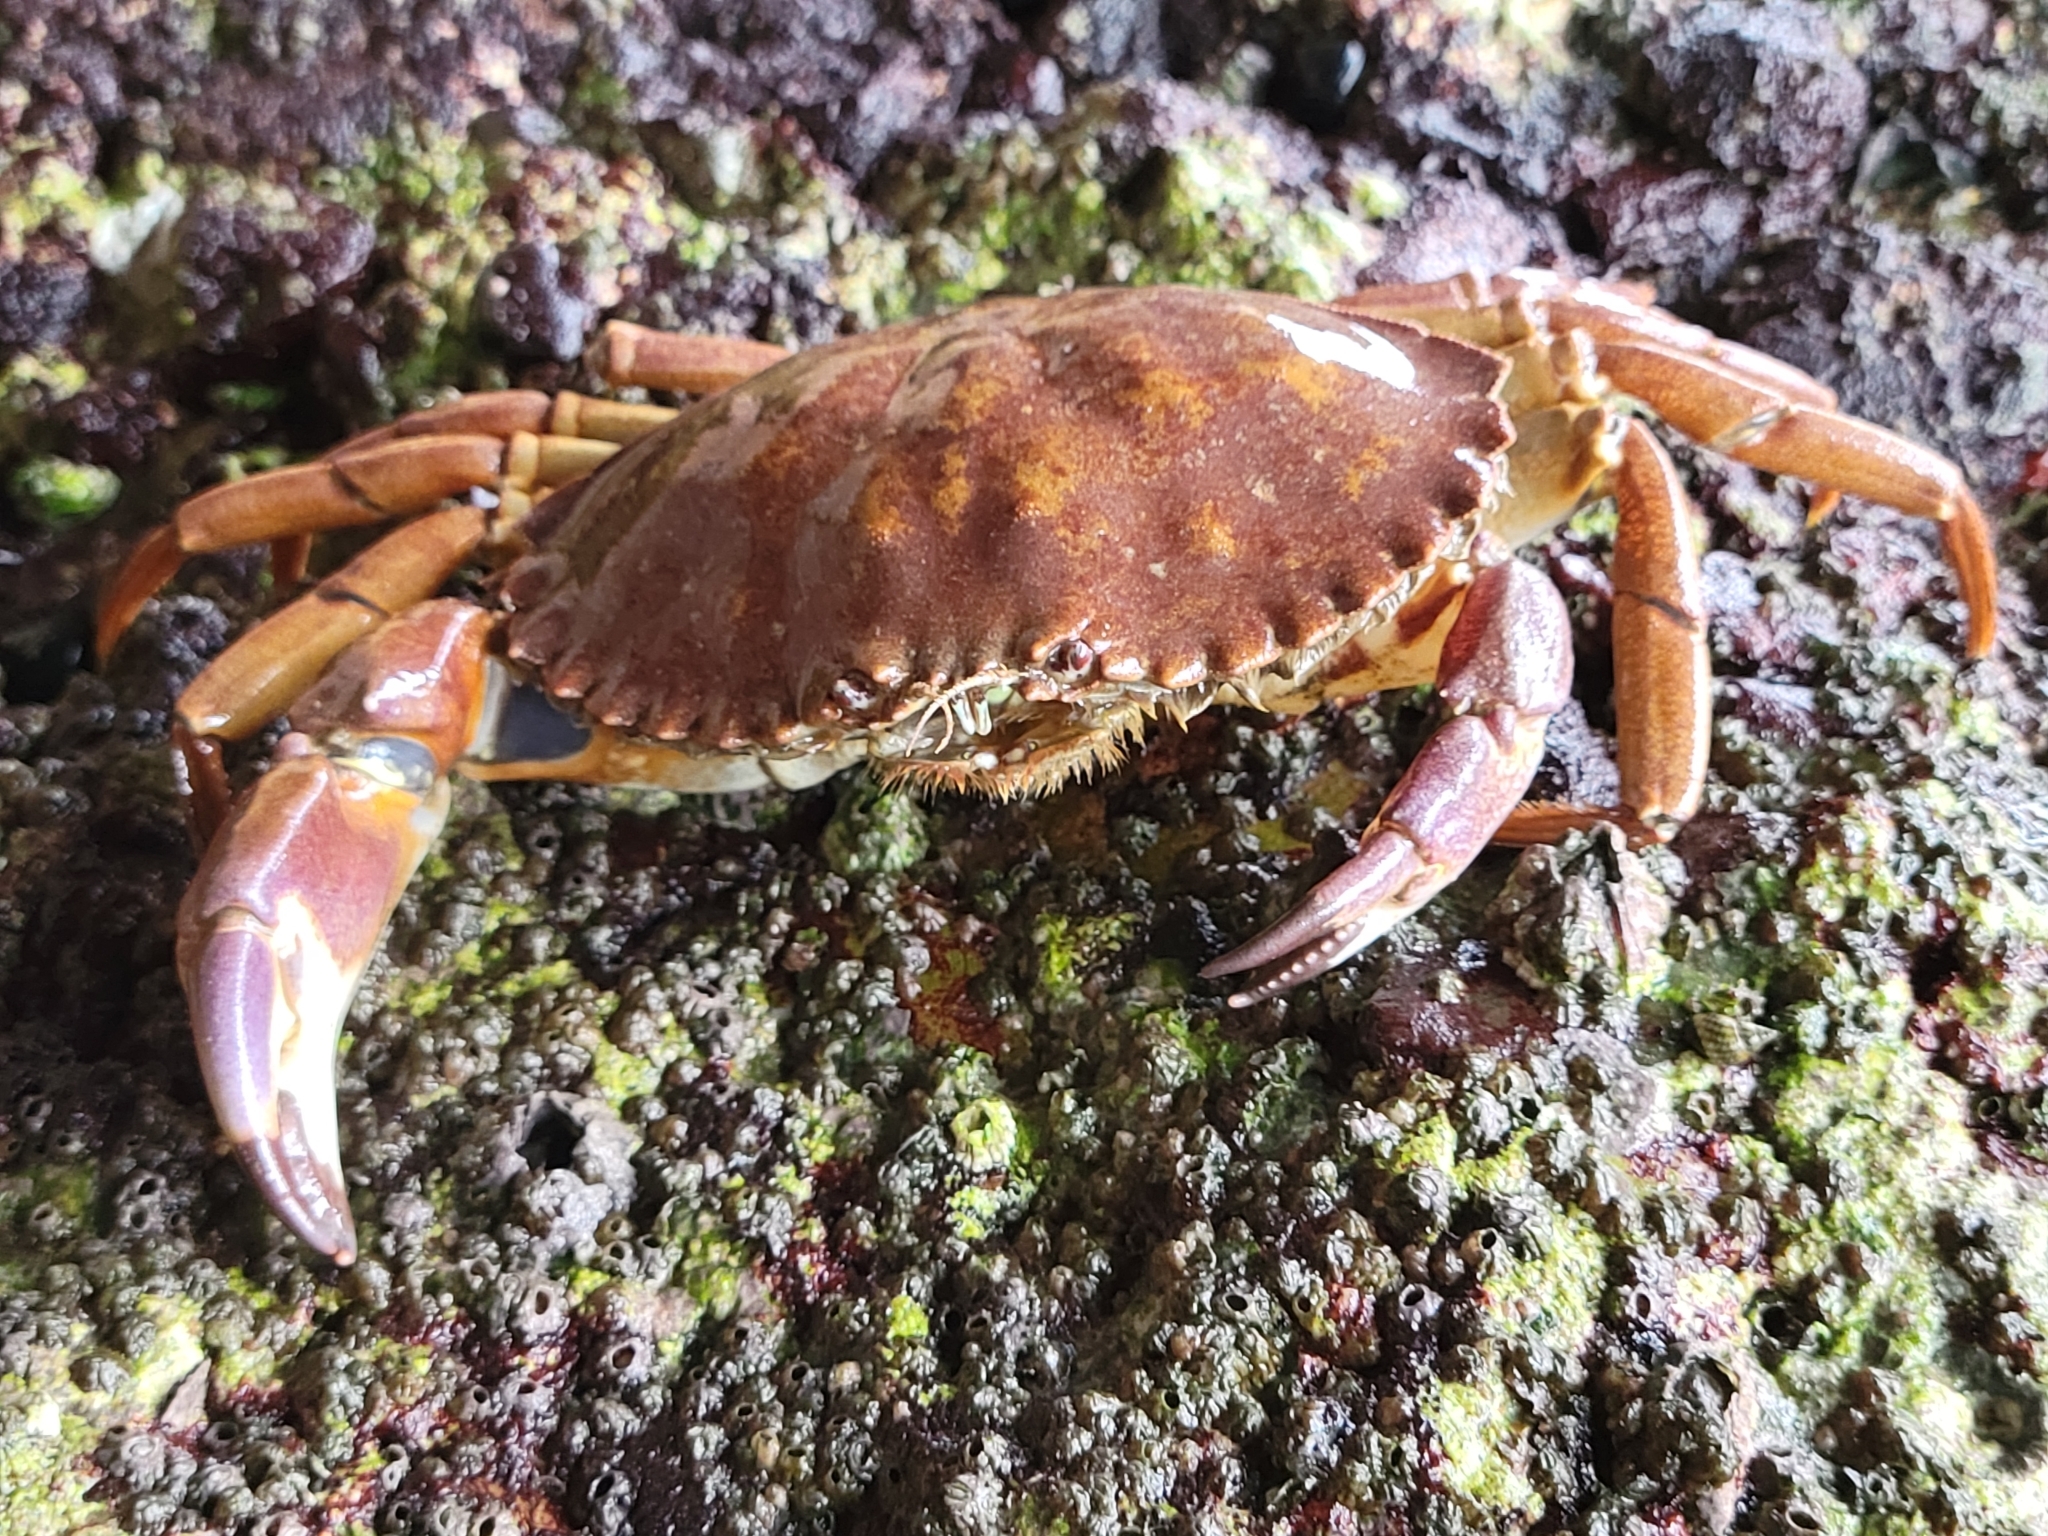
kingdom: Animalia
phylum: Arthropoda
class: Malacostraca
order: Decapoda
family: Cancridae
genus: Metacarcinus
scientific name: Metacarcinus anthonyi
